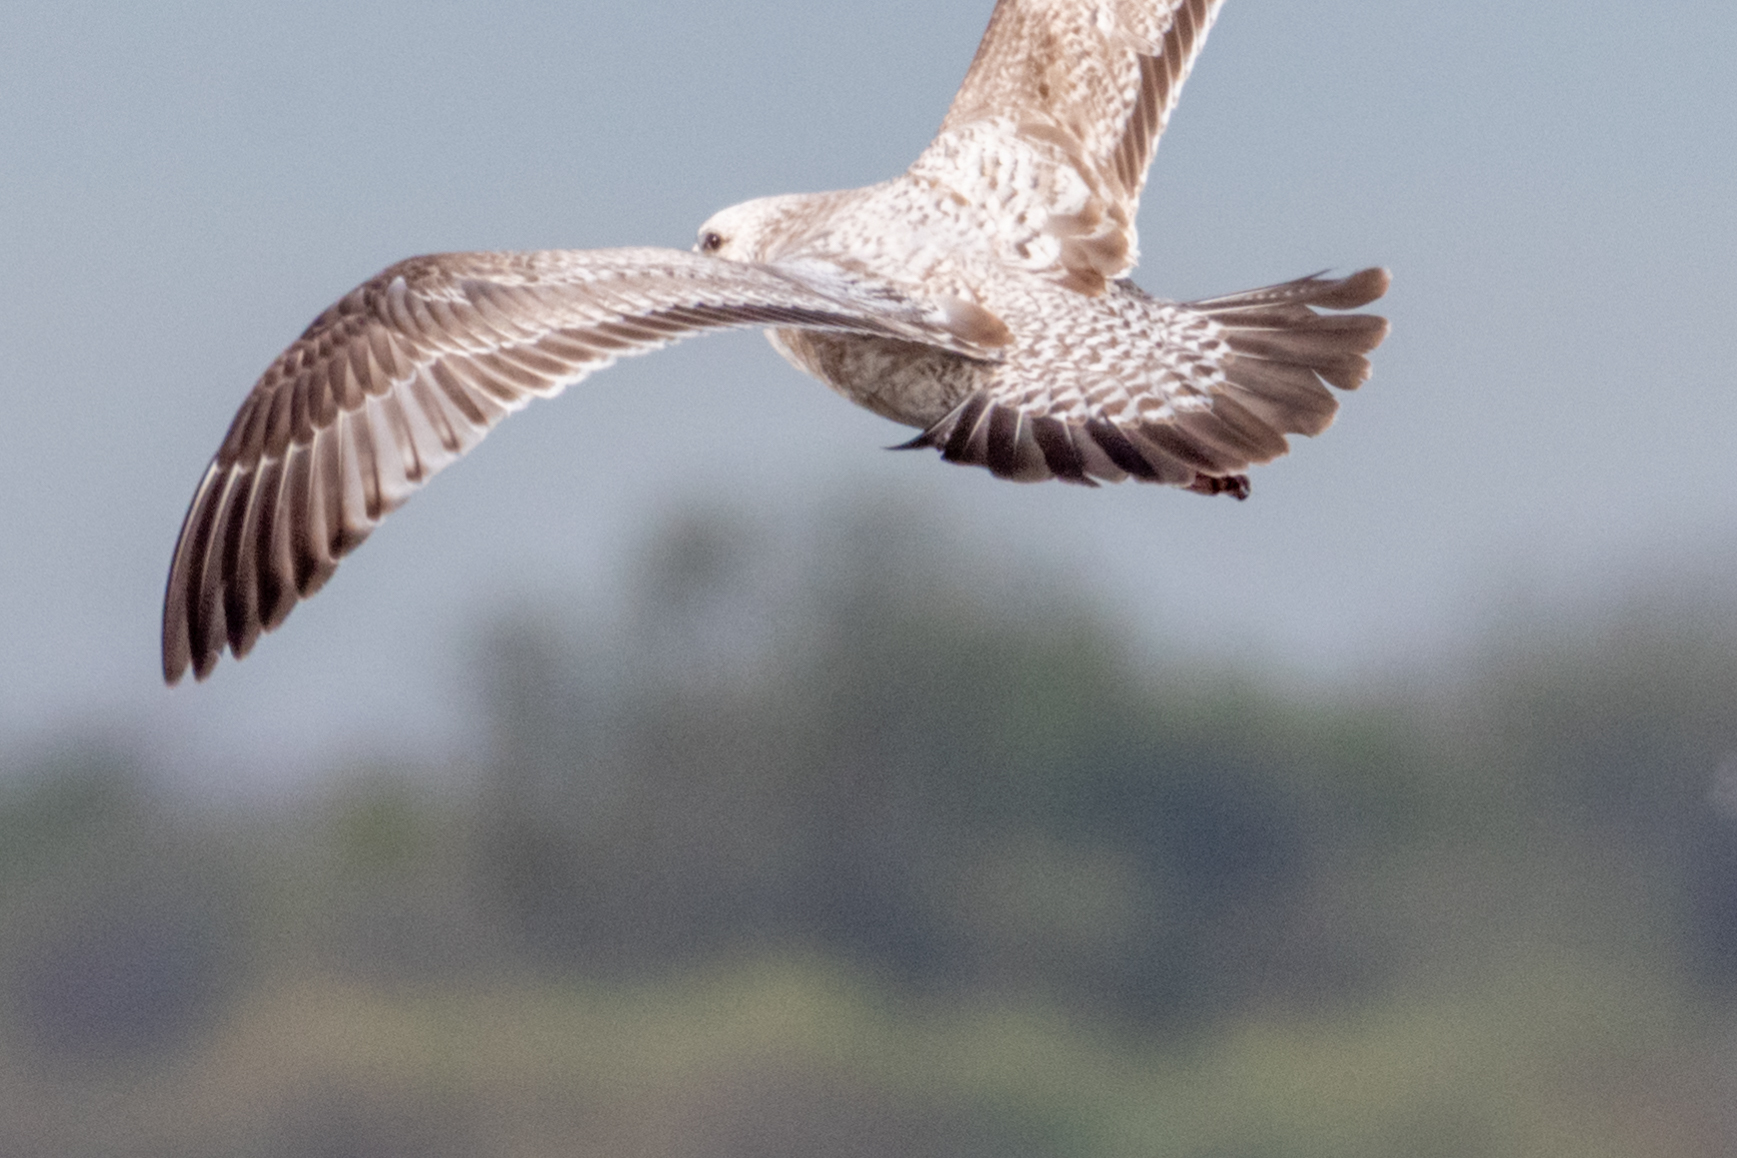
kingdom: Animalia
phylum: Chordata
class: Aves
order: Charadriiformes
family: Laridae
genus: Larus
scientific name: Larus argentatus
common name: Herring gull
